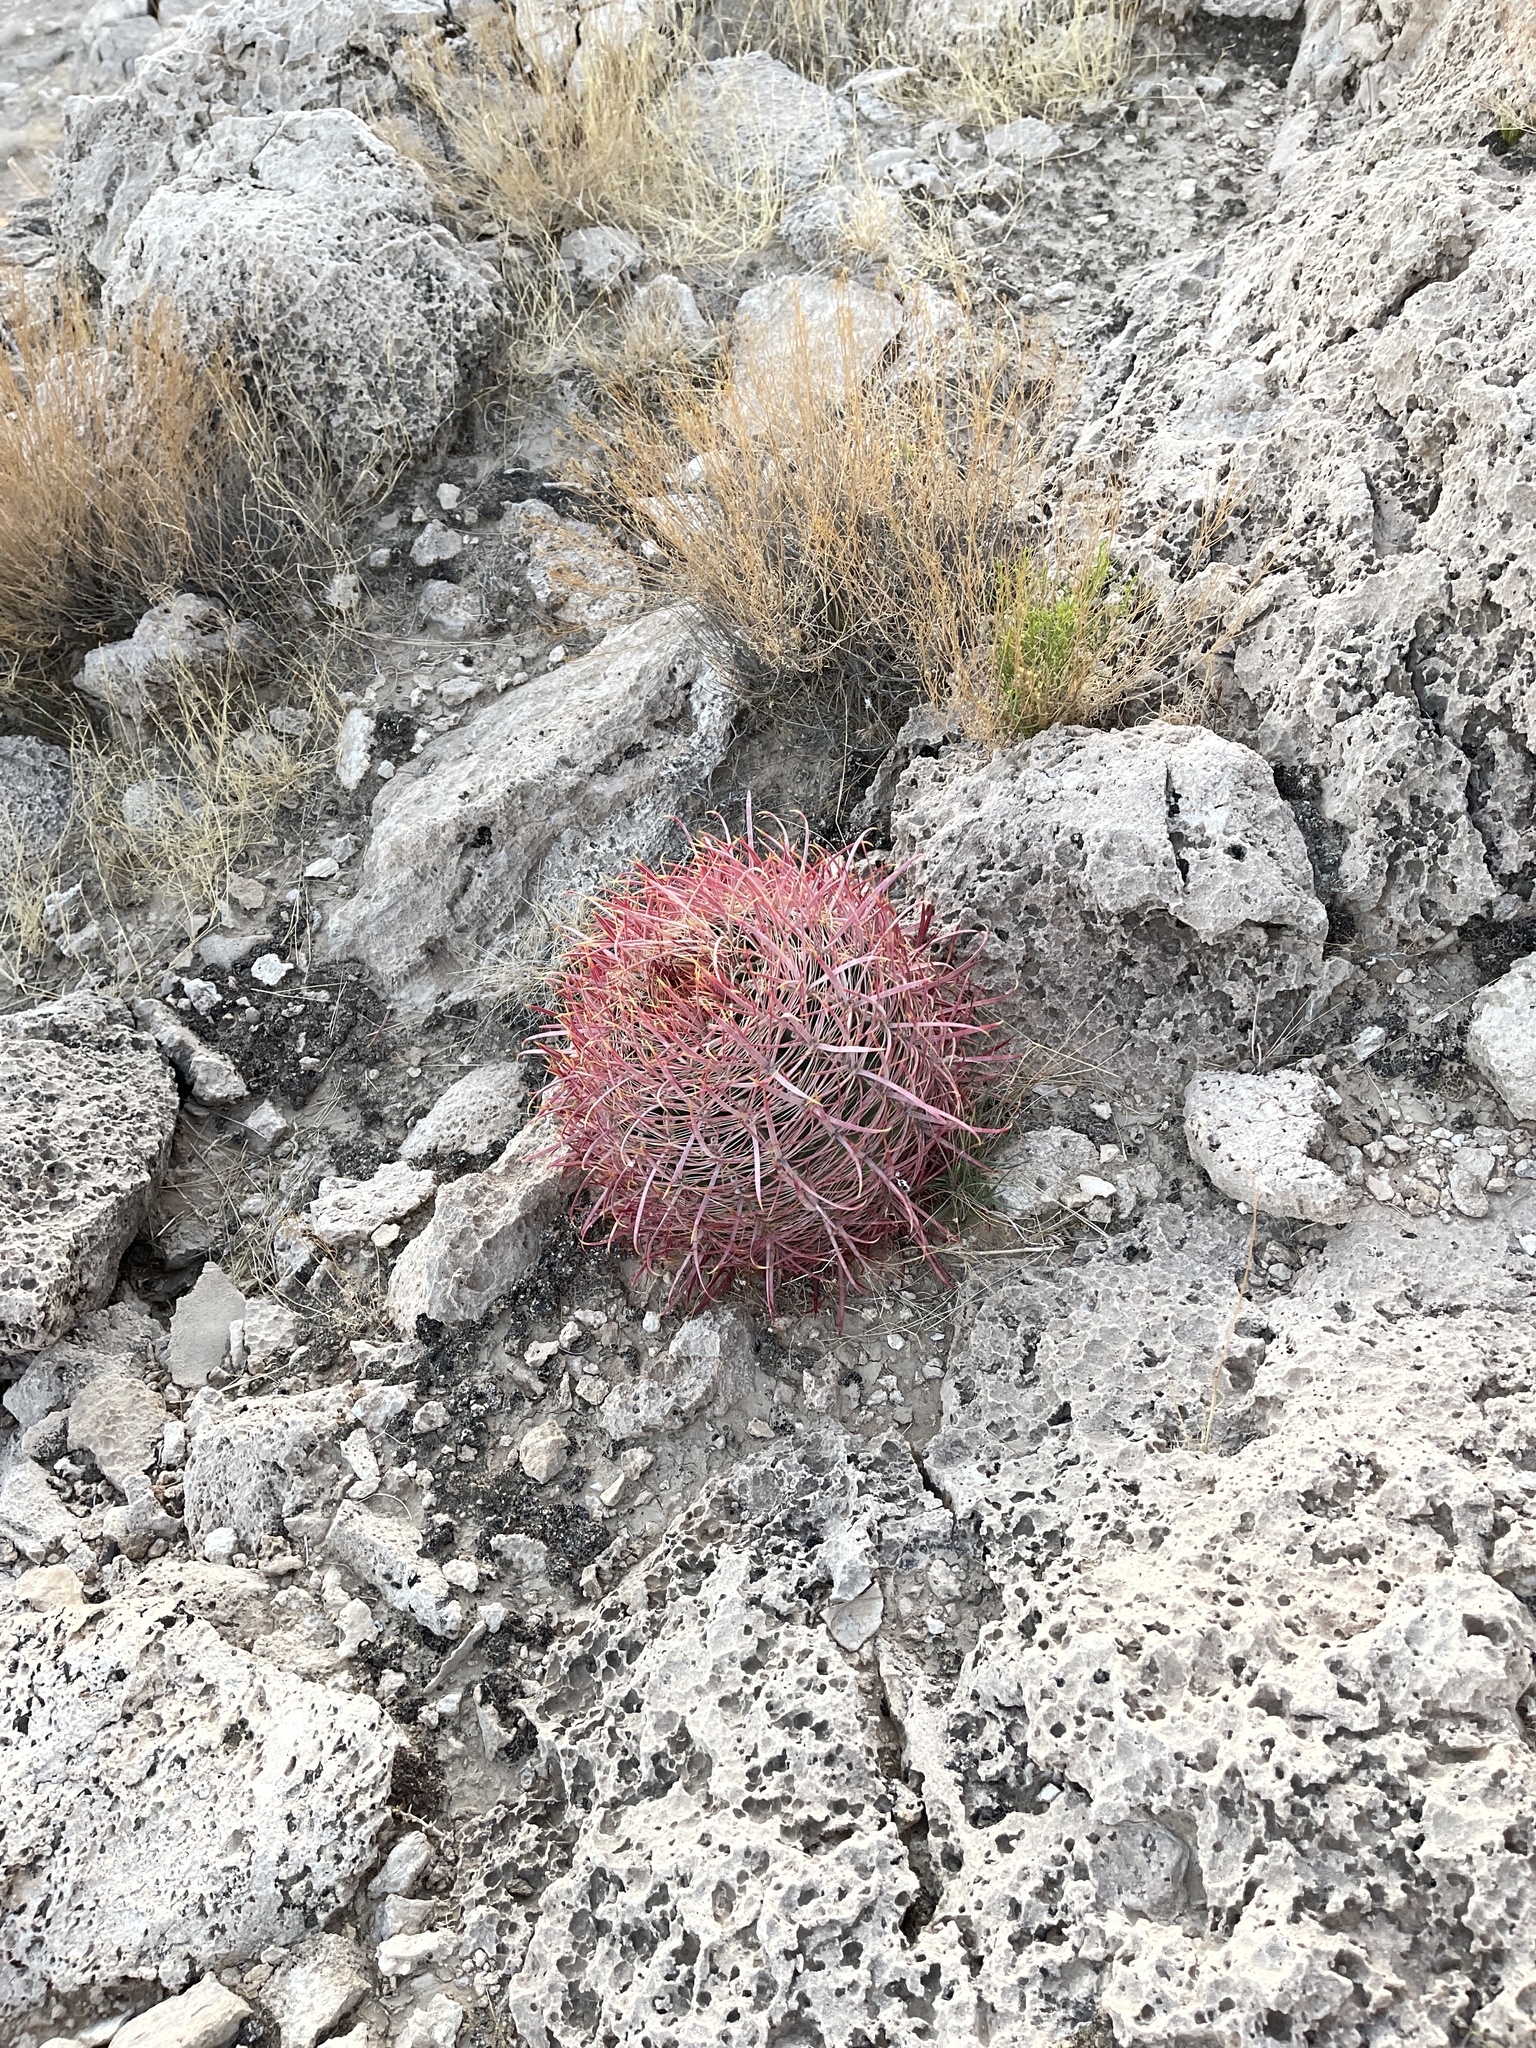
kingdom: Plantae
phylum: Tracheophyta
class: Magnoliopsida
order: Caryophyllales
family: Cactaceae
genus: Ferocactus
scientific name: Ferocactus cylindraceus
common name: California barrel cactus
